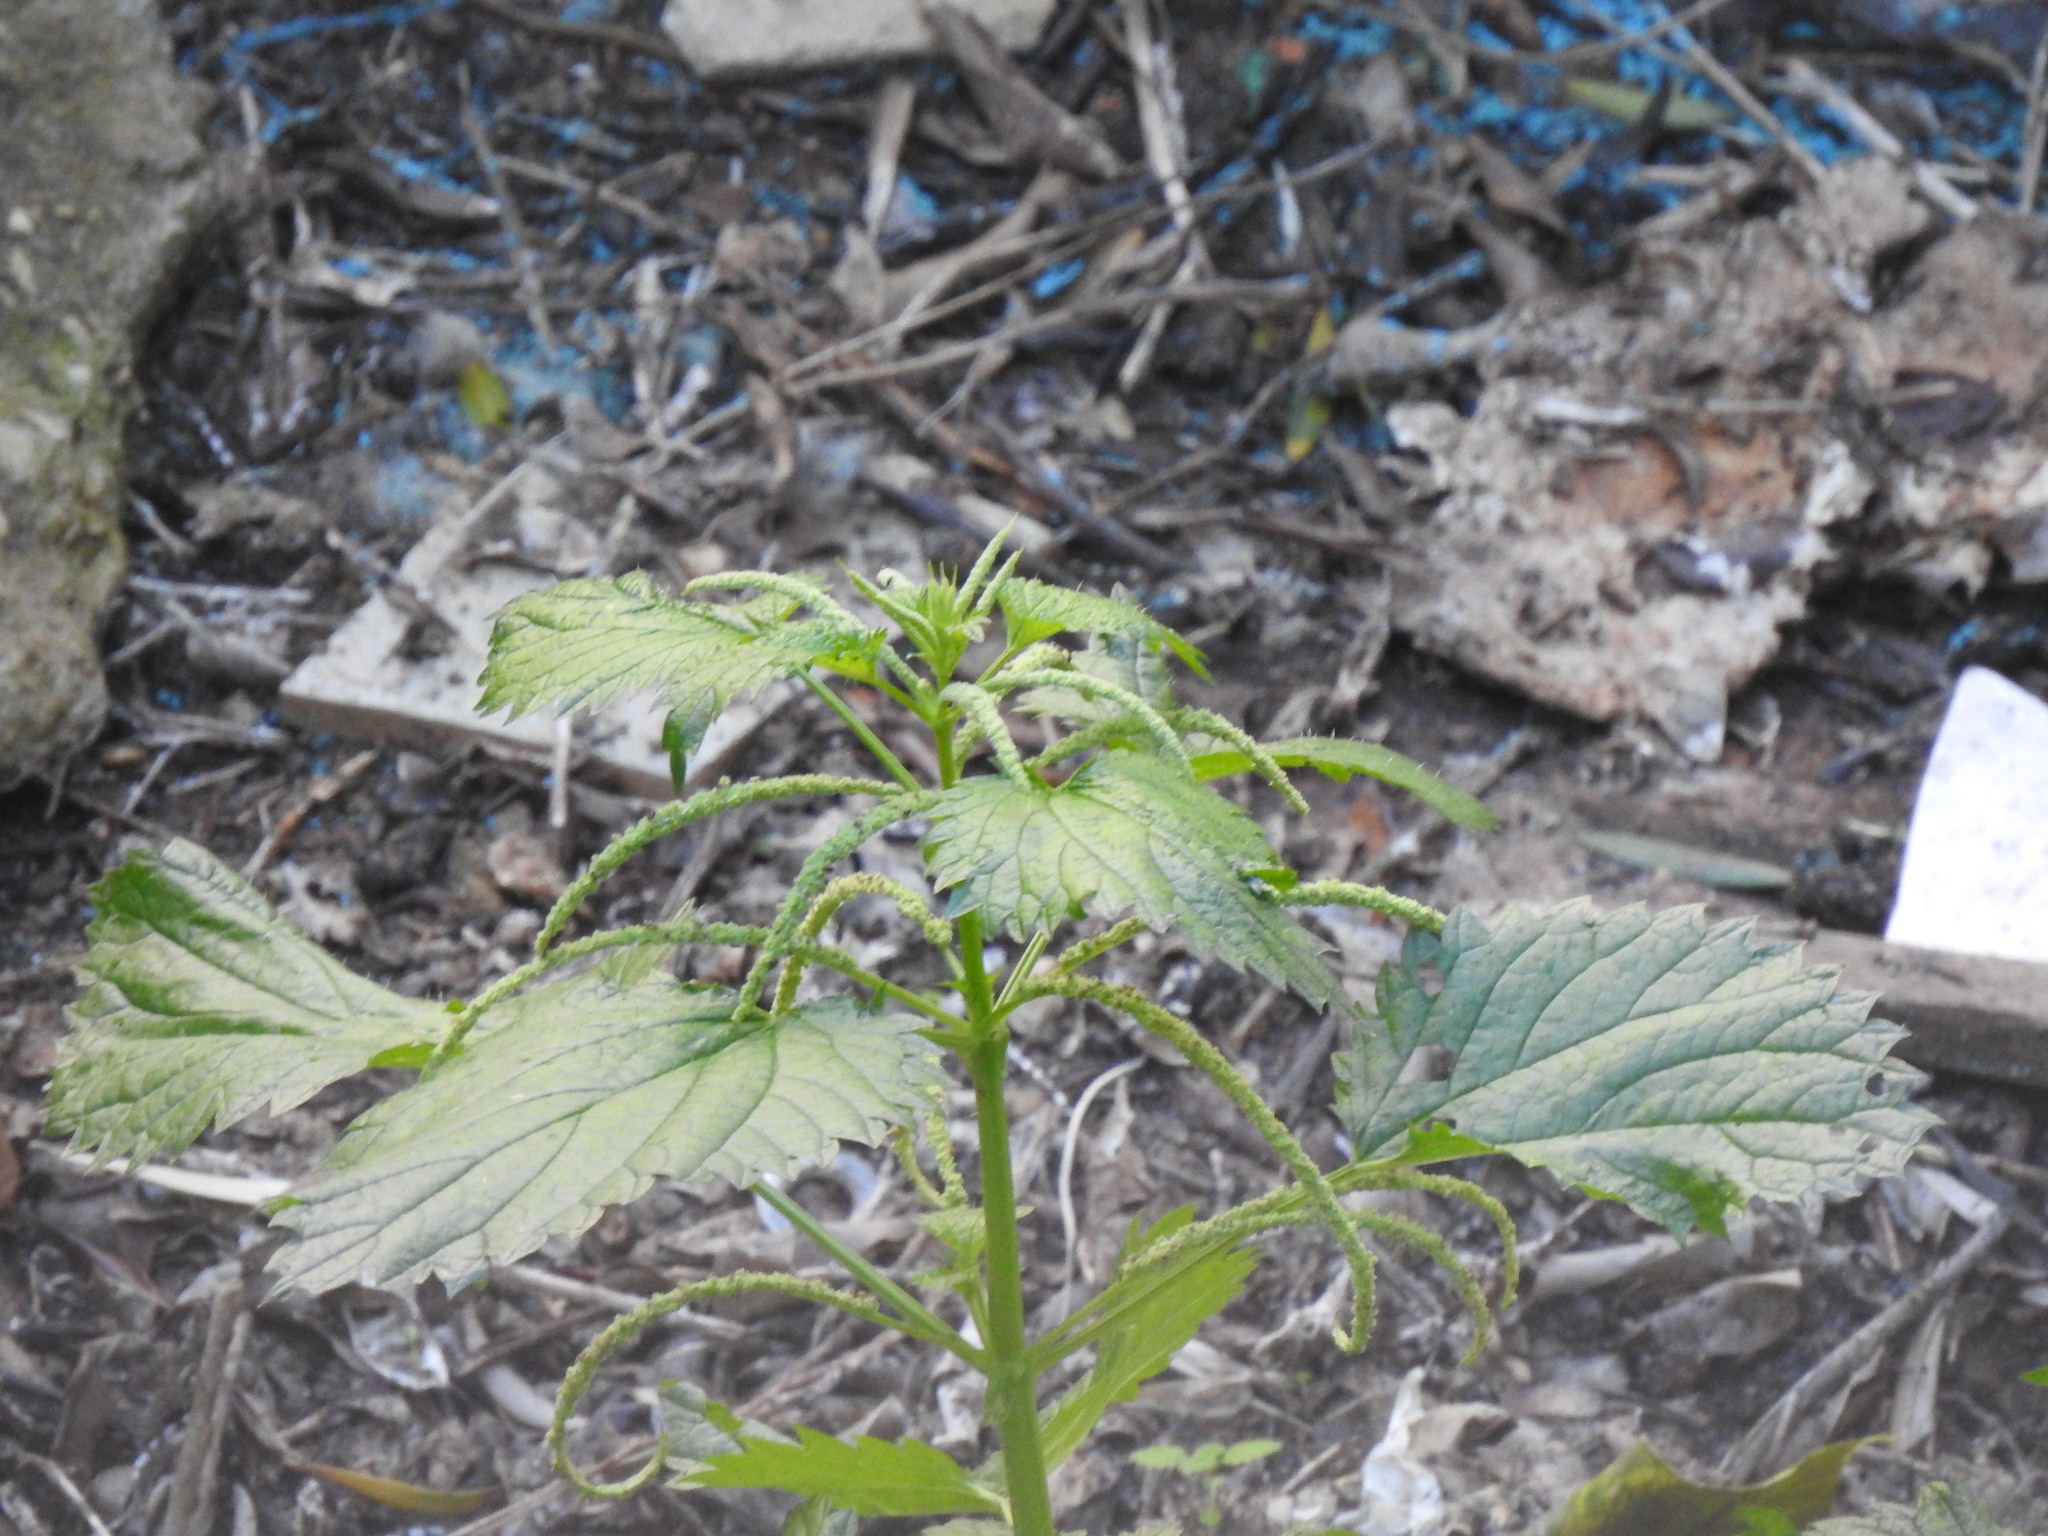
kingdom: Plantae
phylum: Tracheophyta
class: Magnoliopsida
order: Rosales
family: Urticaceae
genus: Urtica
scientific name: Urtica membranacea
